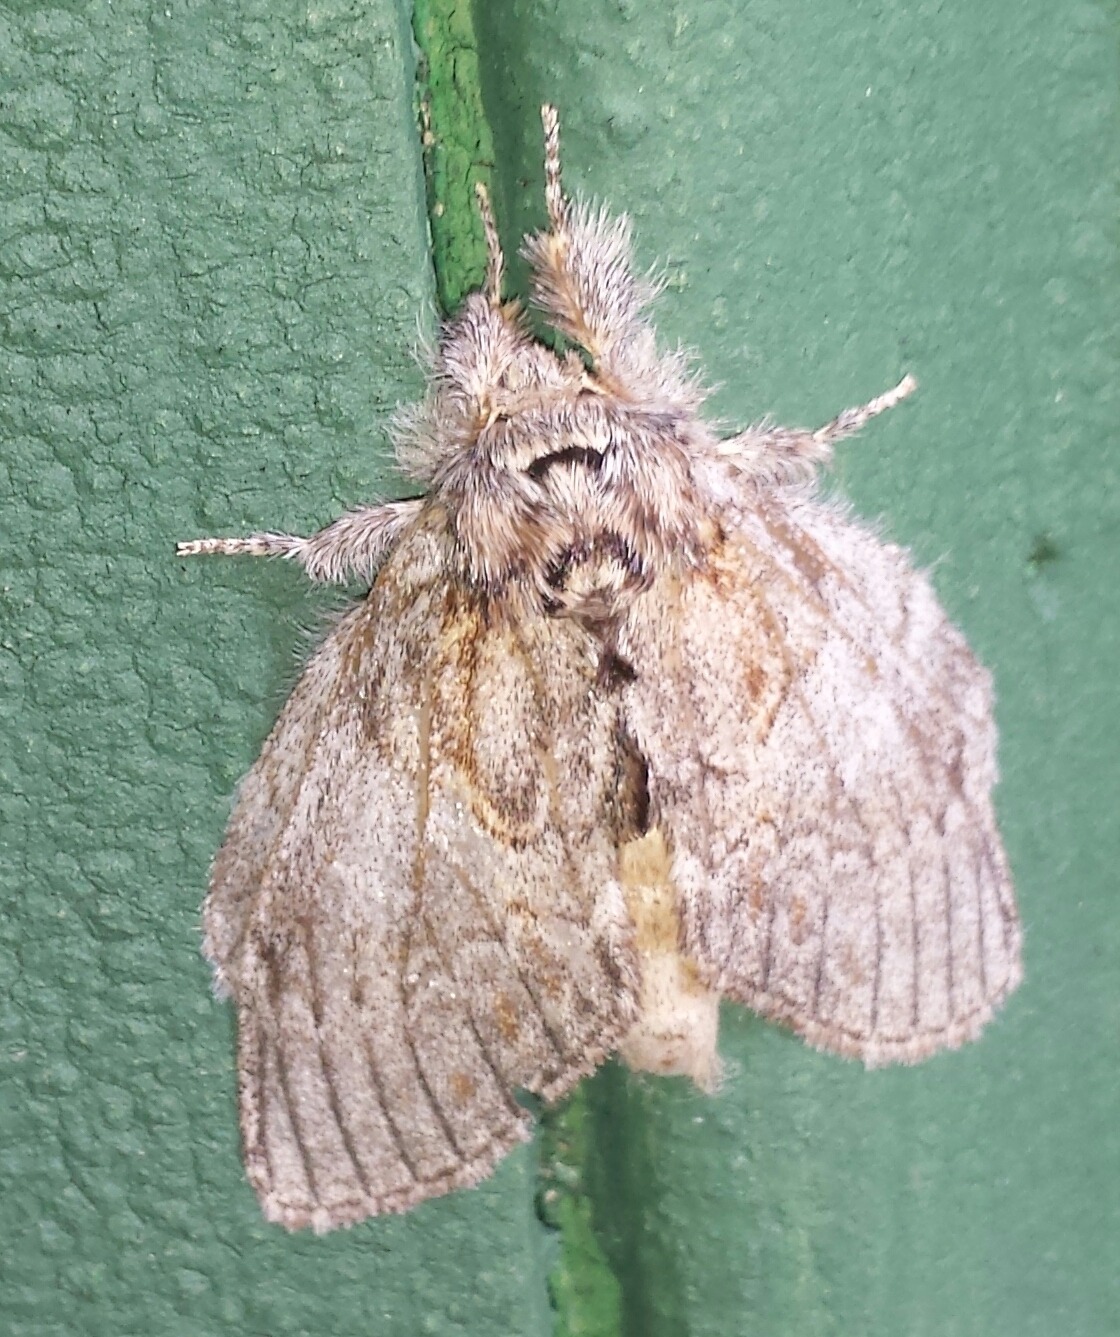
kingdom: Animalia
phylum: Arthropoda
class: Insecta
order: Lepidoptera
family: Notodontidae
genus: Peridea
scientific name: Peridea basitriens
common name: Oval-based prominent
